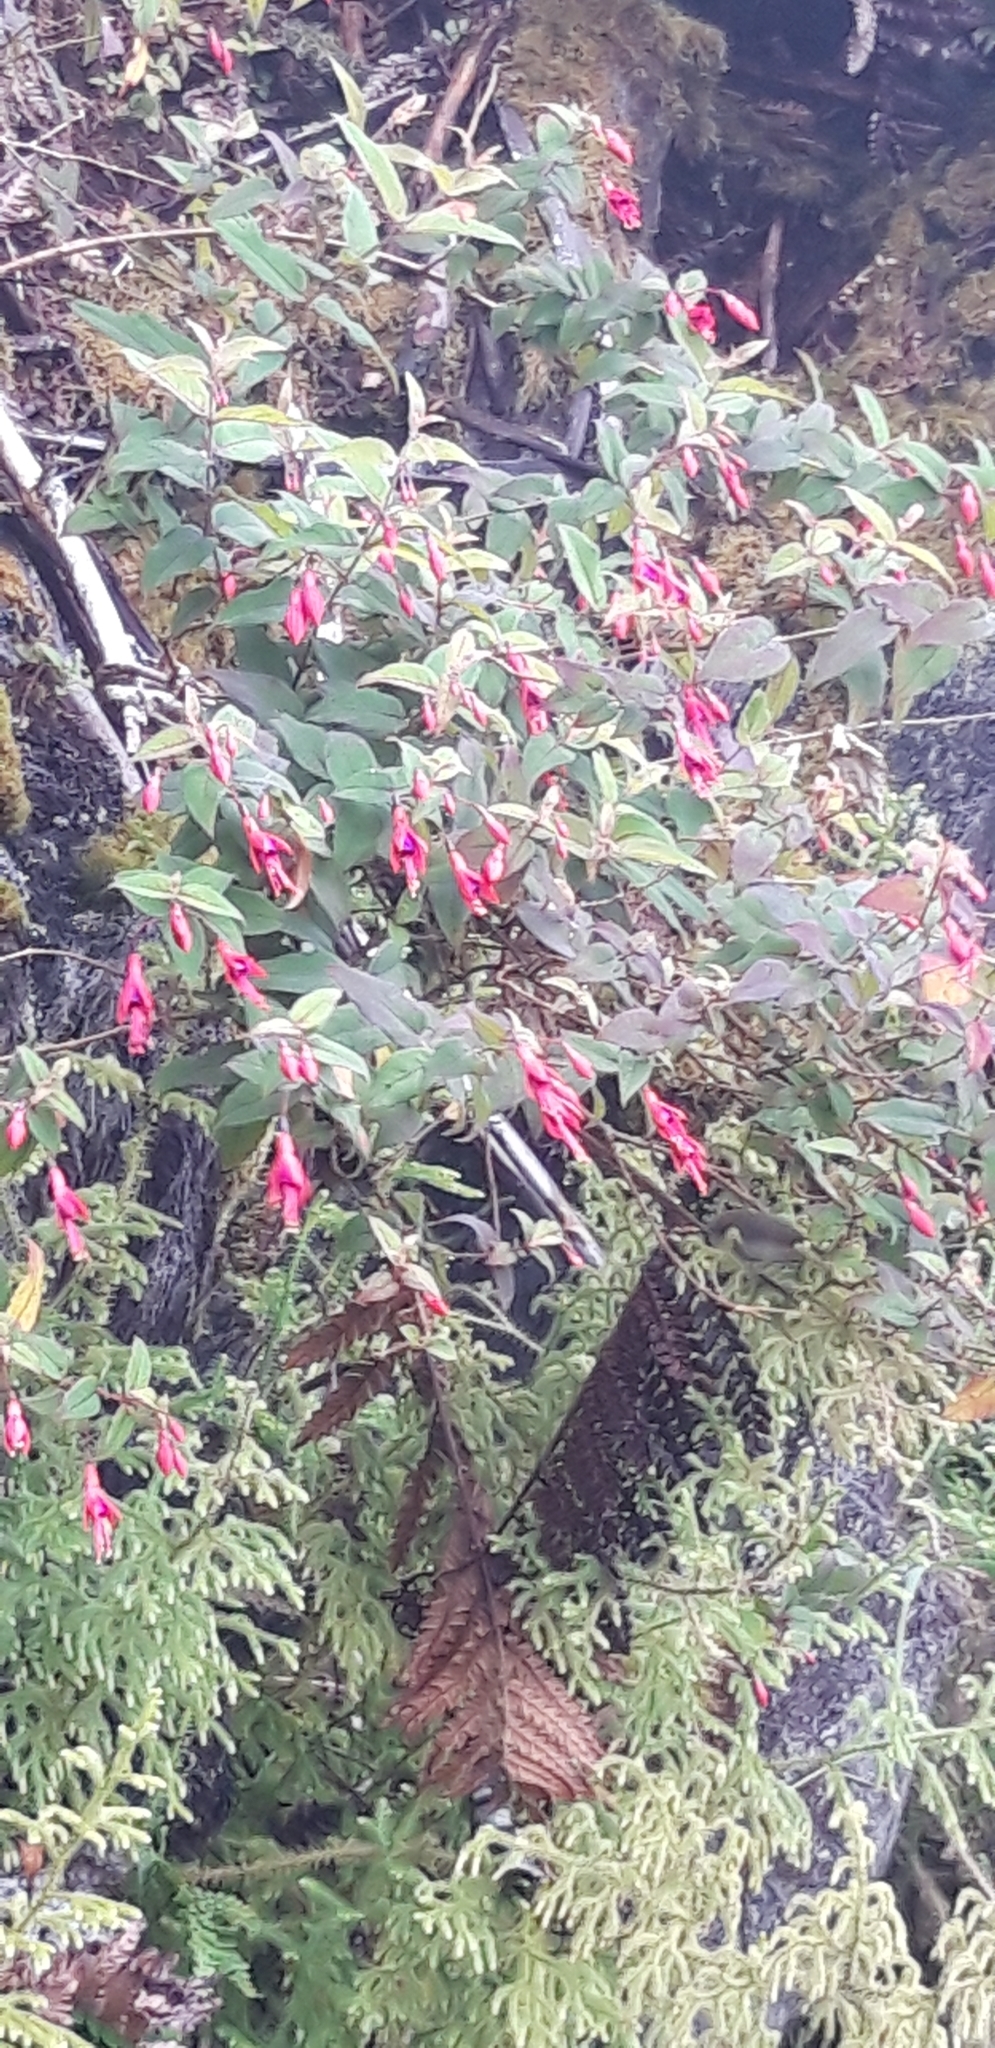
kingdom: Plantae
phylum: Tracheophyta
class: Magnoliopsida
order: Myrtales
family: Onagraceae
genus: Fuchsia
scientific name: Fuchsia coccinea
